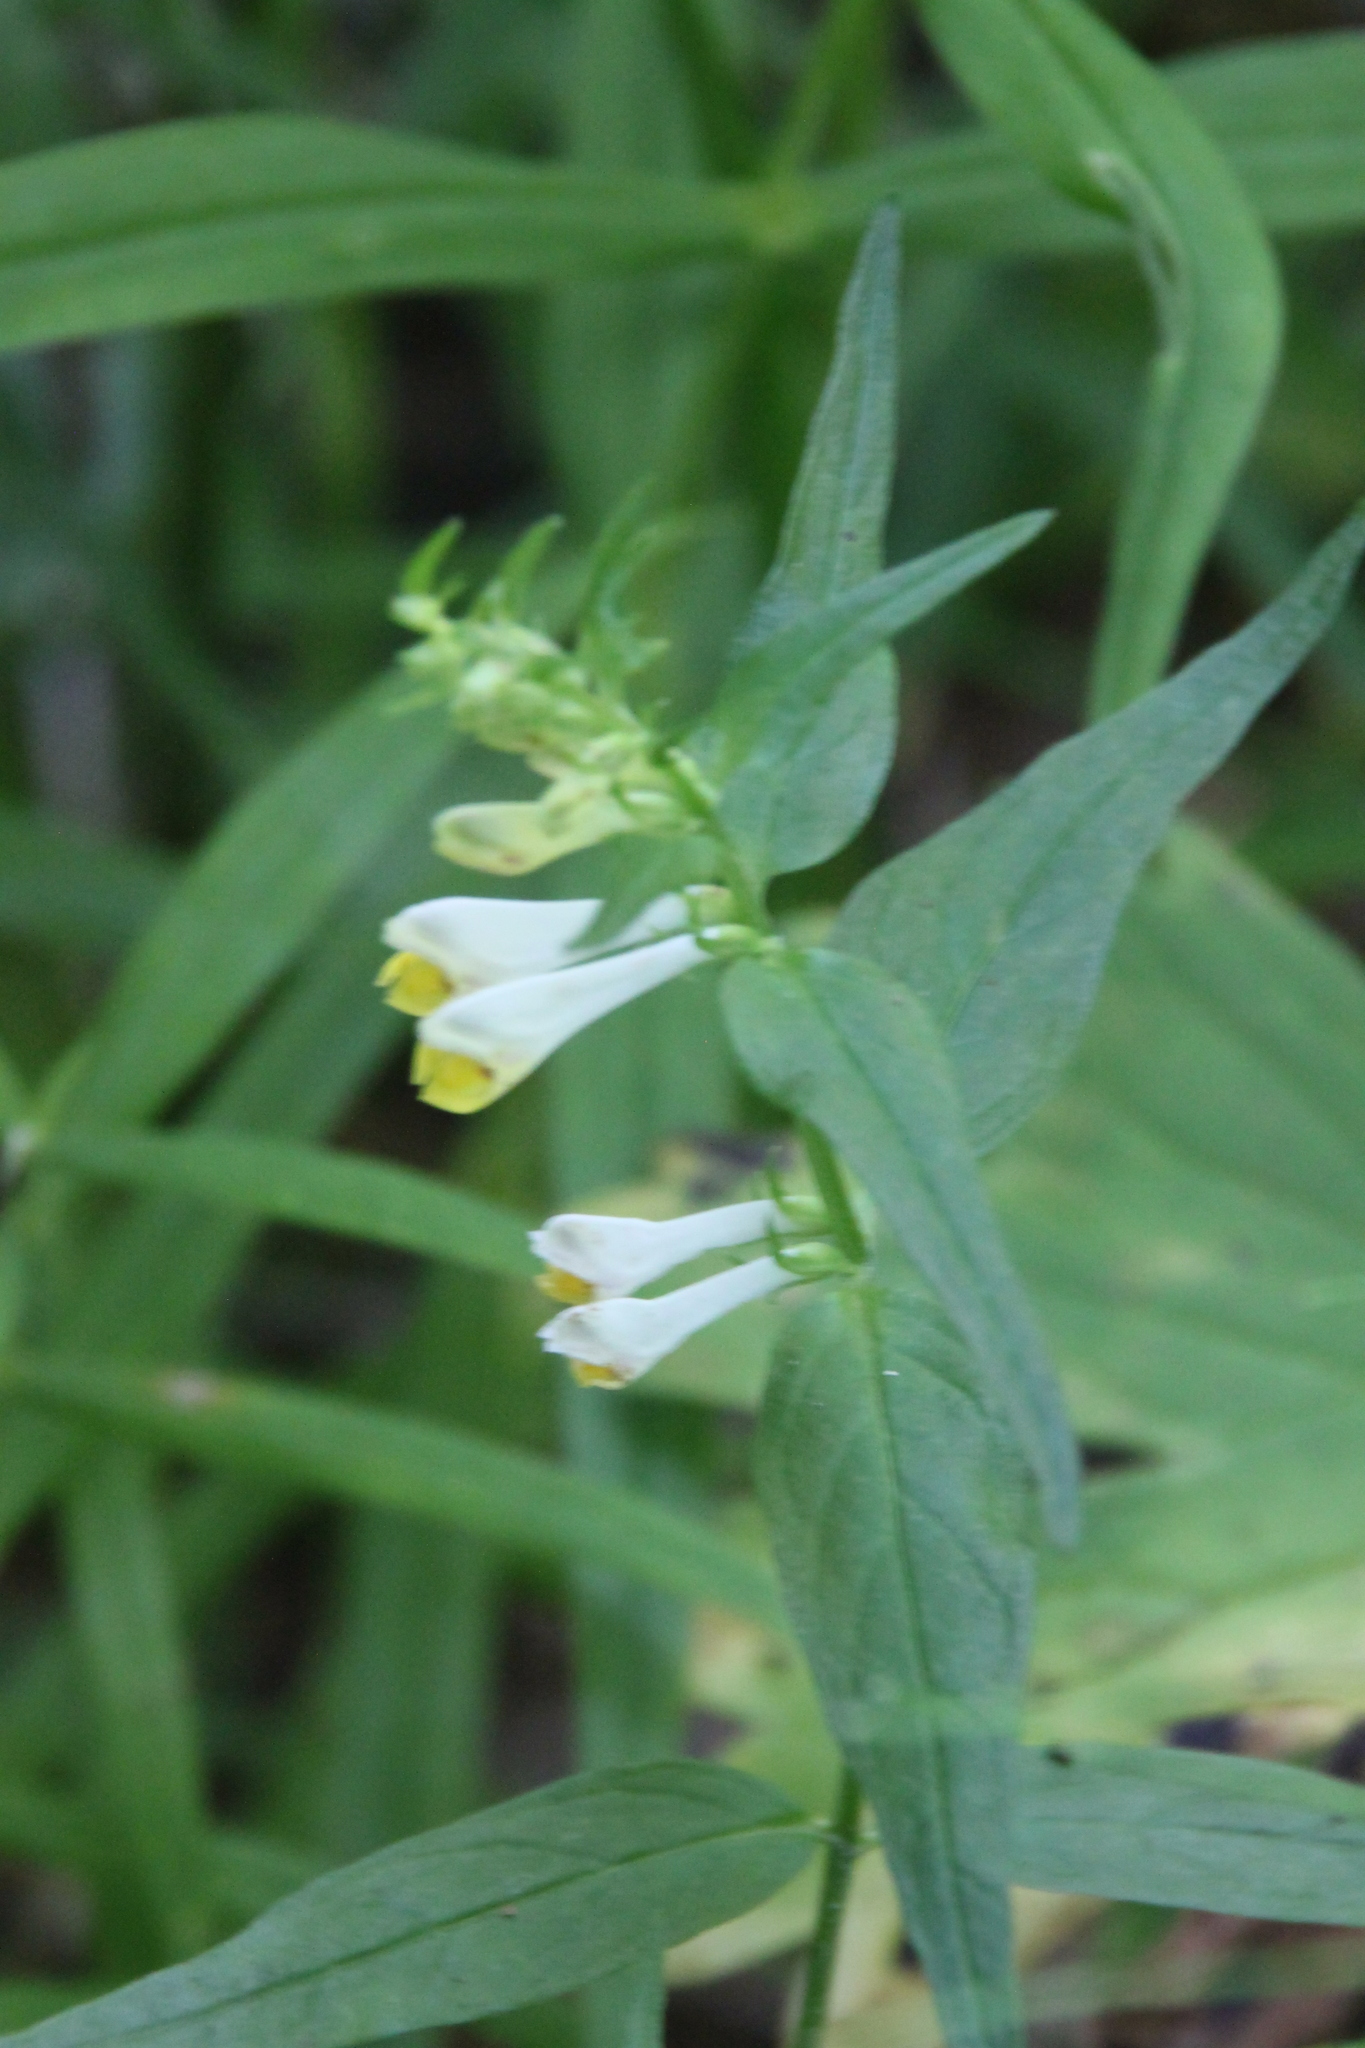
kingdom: Plantae
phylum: Tracheophyta
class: Magnoliopsida
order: Lamiales
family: Orobanchaceae
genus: Melampyrum
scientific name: Melampyrum pratense
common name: Common cow-wheat
